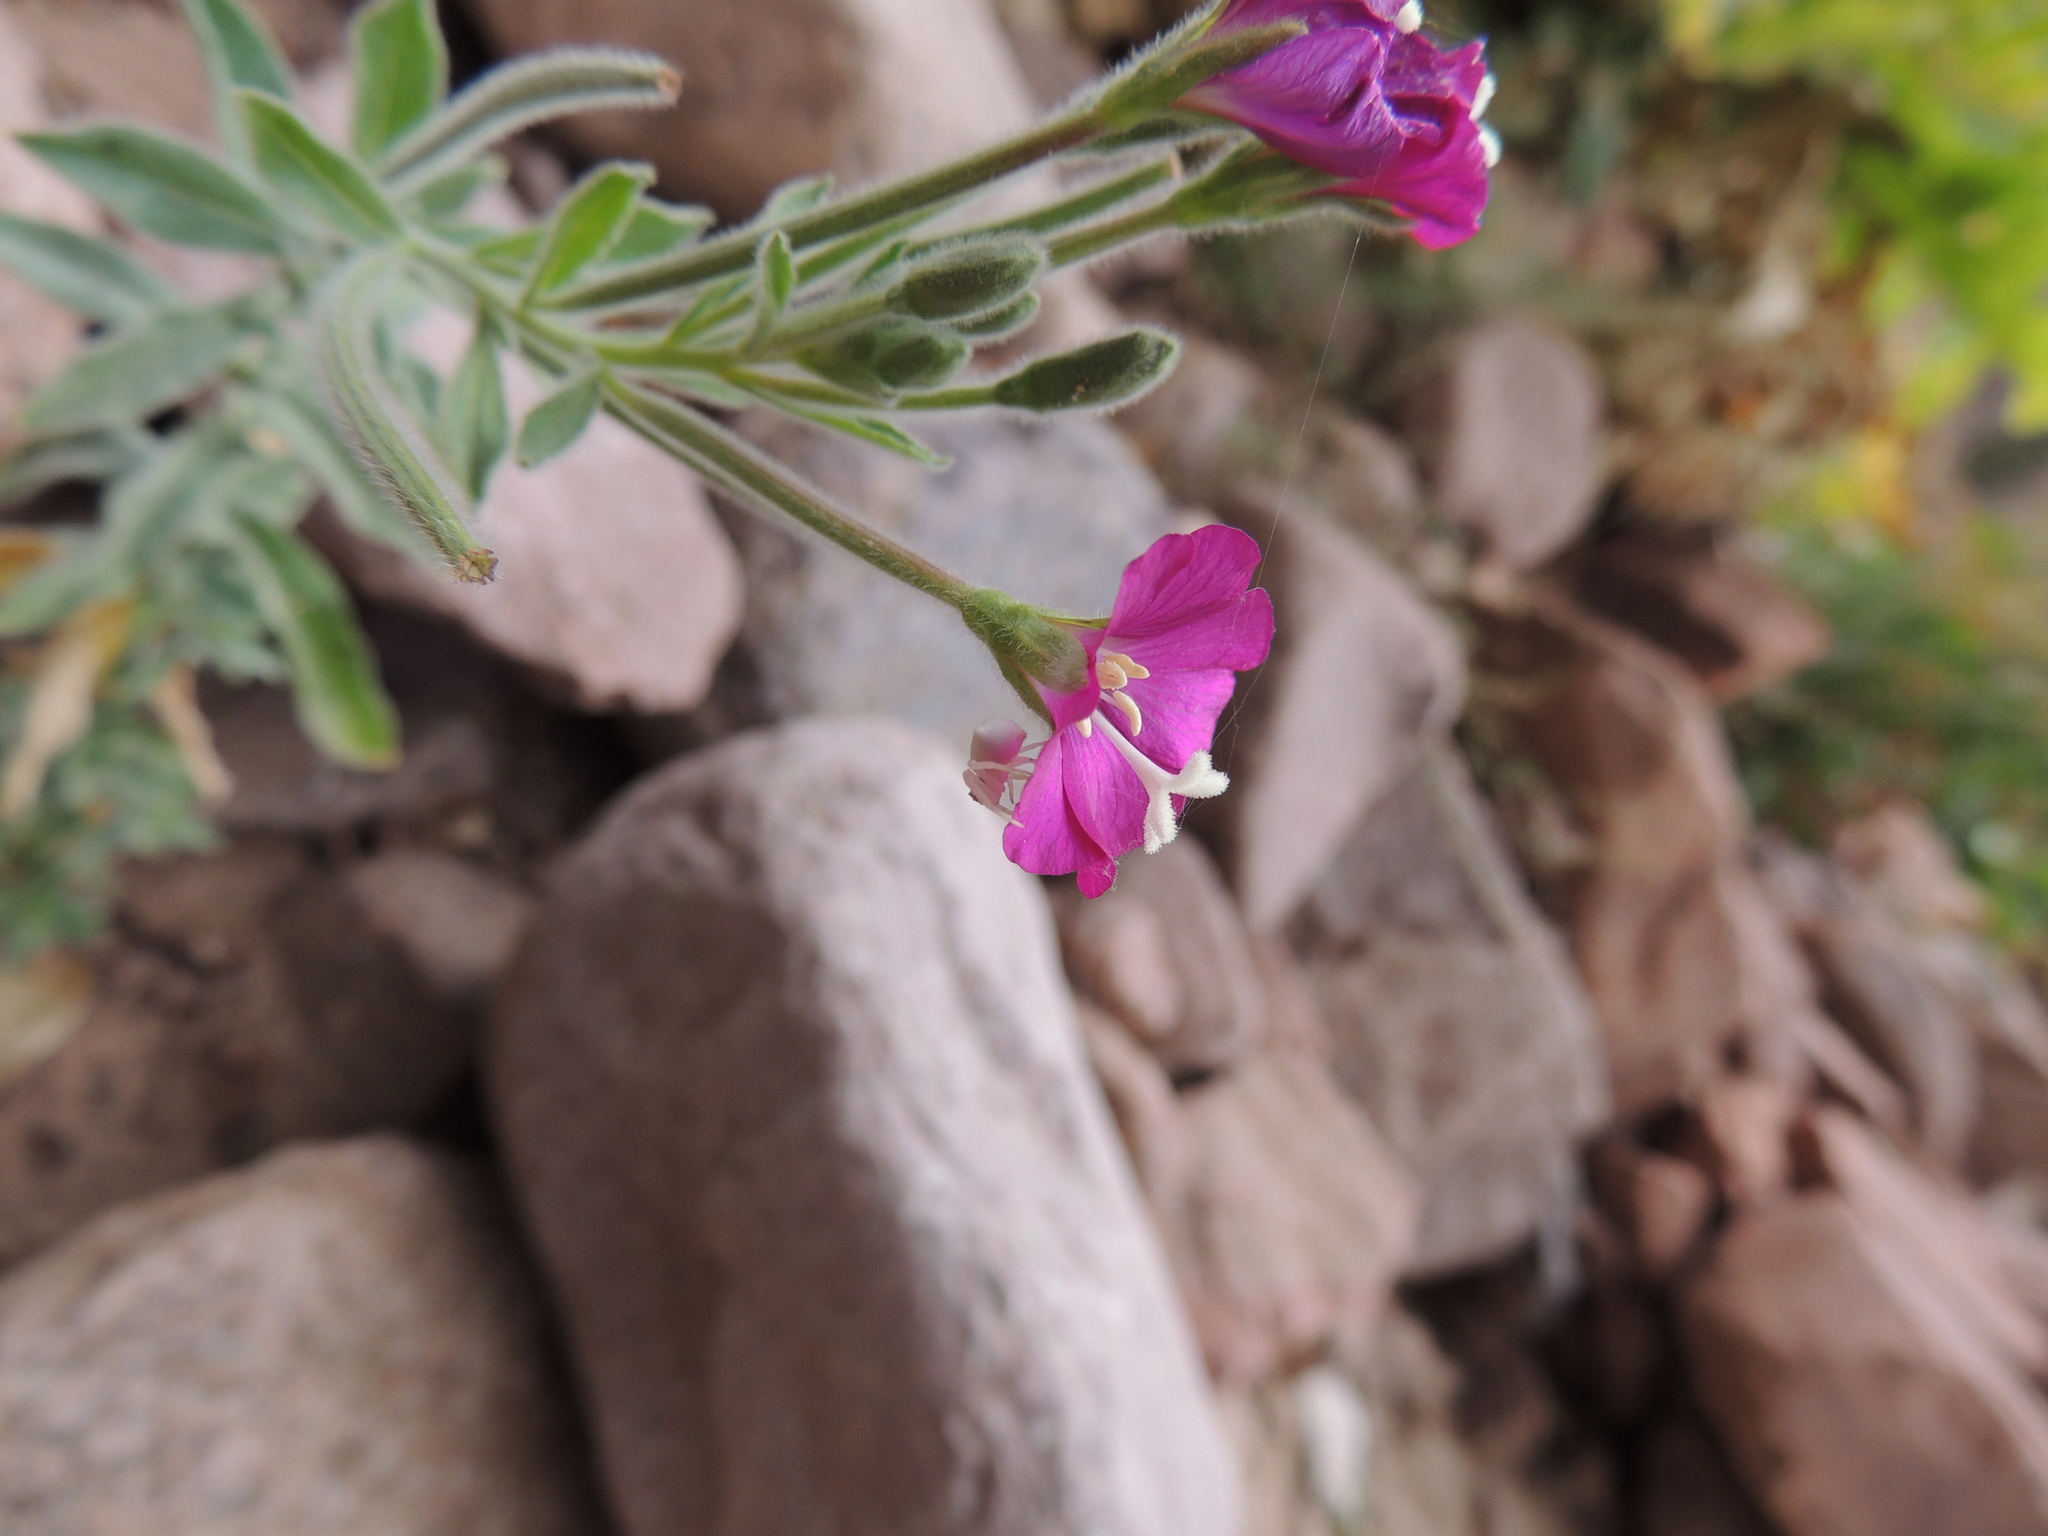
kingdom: Animalia
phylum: Arthropoda
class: Arachnida
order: Araneae
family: Thomisidae
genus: Thomisus
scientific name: Thomisus
